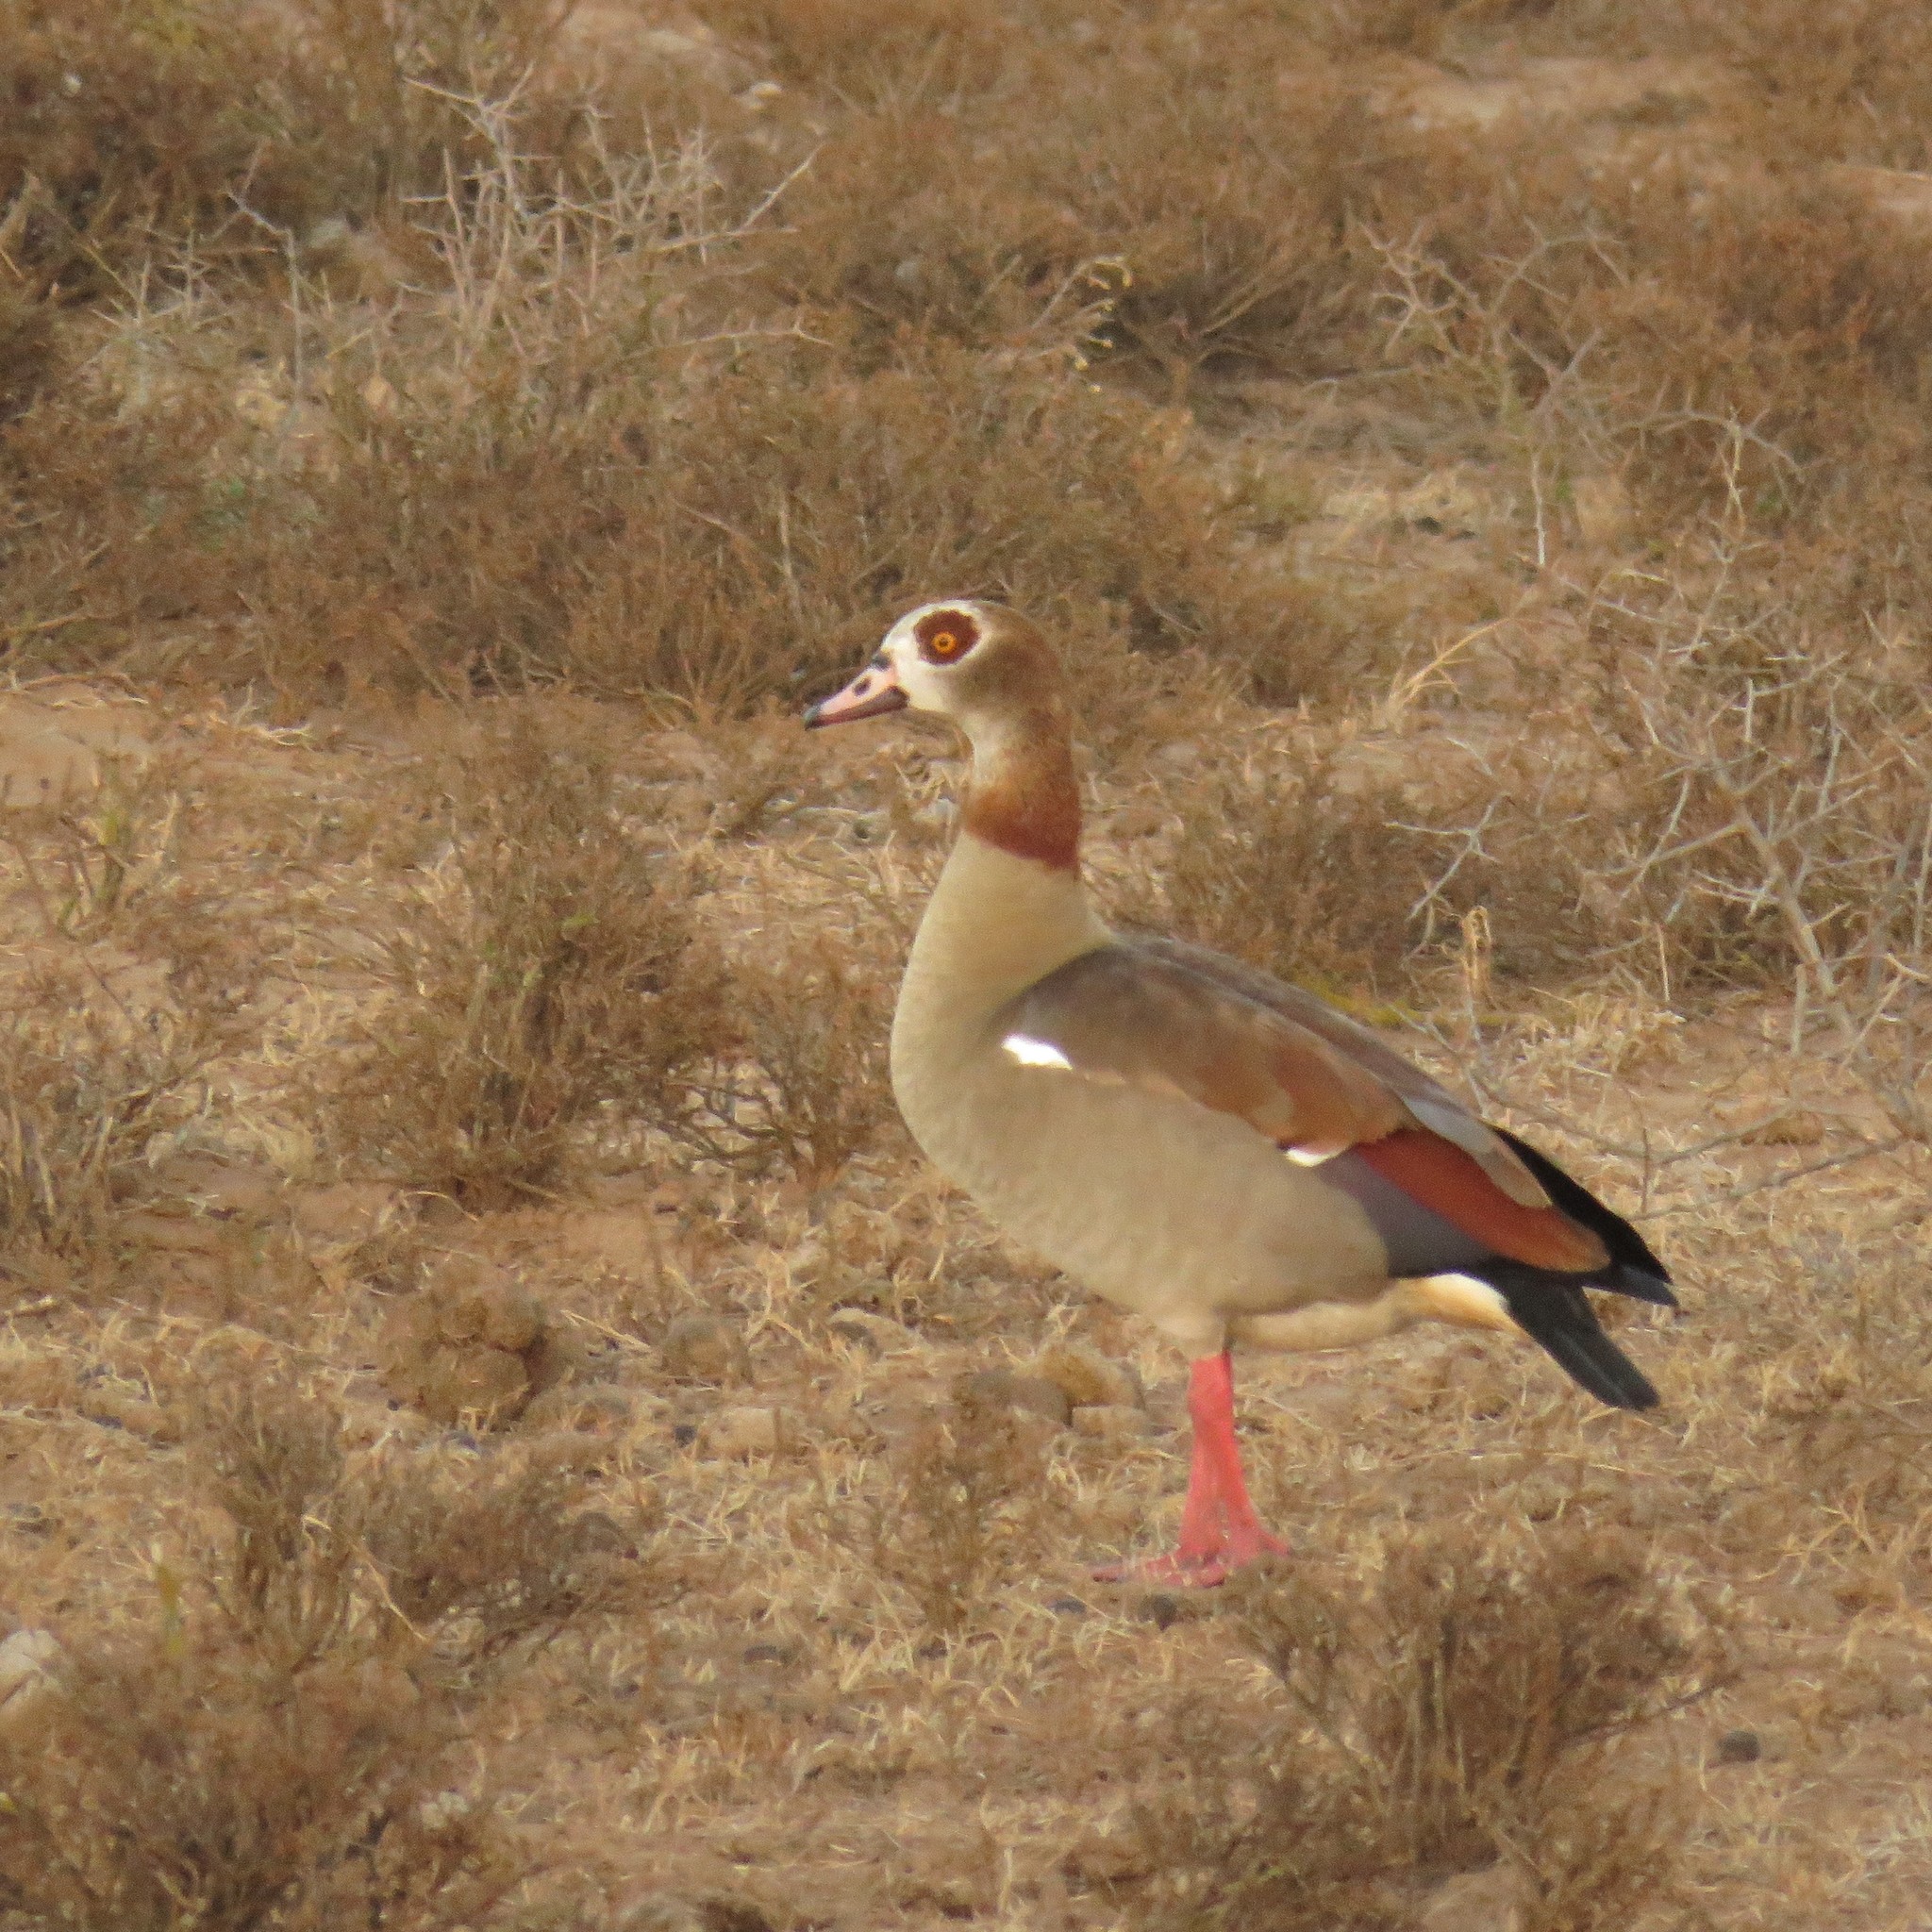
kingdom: Animalia
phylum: Chordata
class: Aves
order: Anseriformes
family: Anatidae
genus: Alopochen
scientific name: Alopochen aegyptiaca
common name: Egyptian goose
